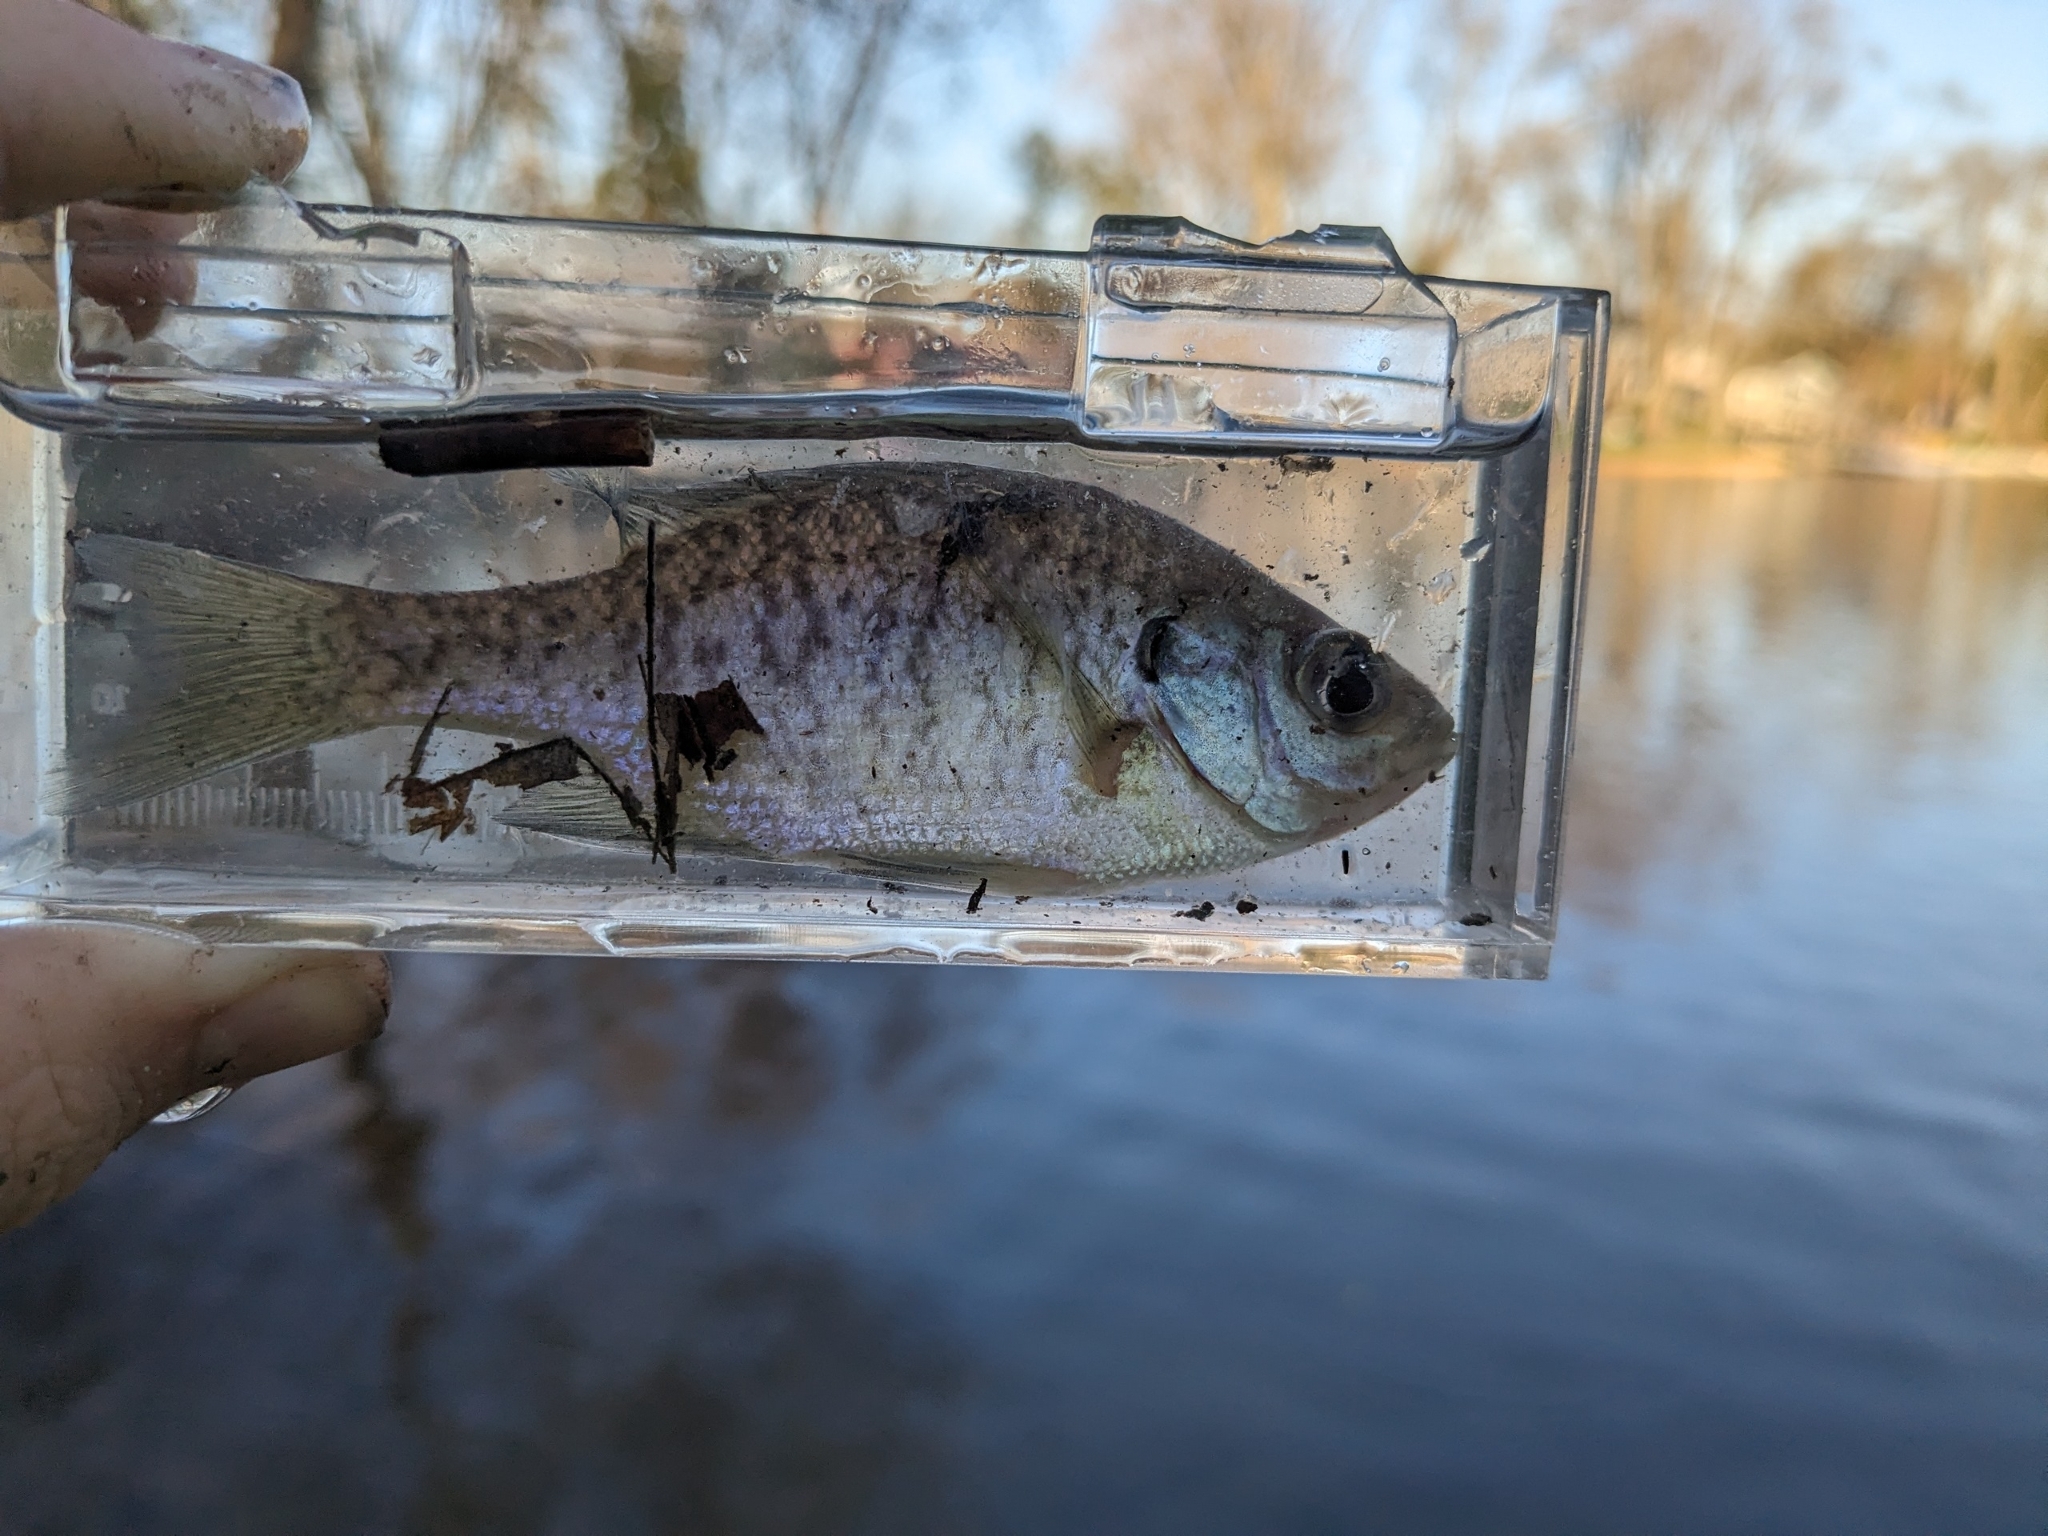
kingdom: Animalia
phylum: Chordata
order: Perciformes
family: Centrarchidae
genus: Lepomis
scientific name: Lepomis macrochirus
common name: Bluegill
